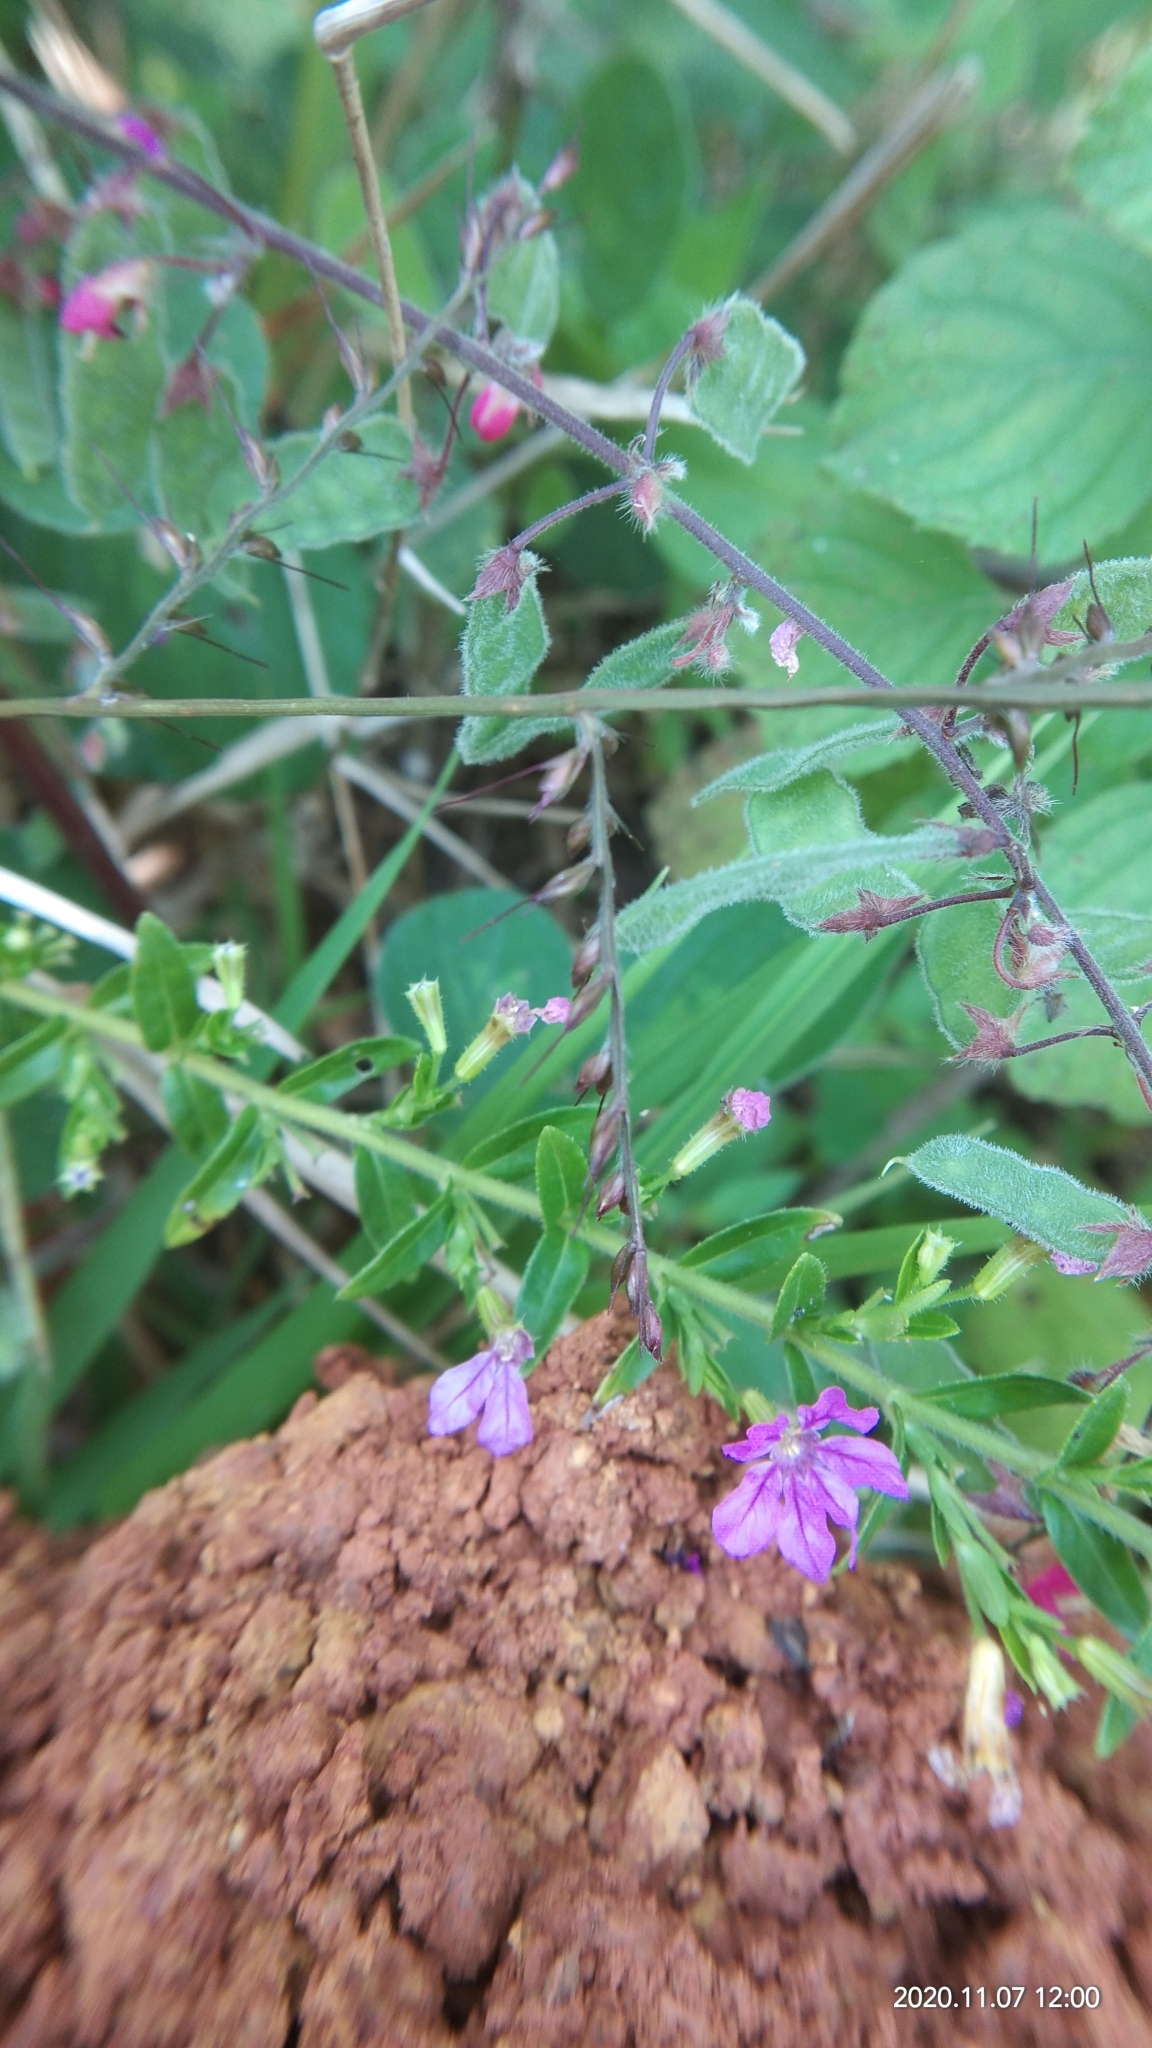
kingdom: Plantae
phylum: Tracheophyta
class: Magnoliopsida
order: Myrtales
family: Lythraceae
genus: Cuphea
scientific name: Cuphea
